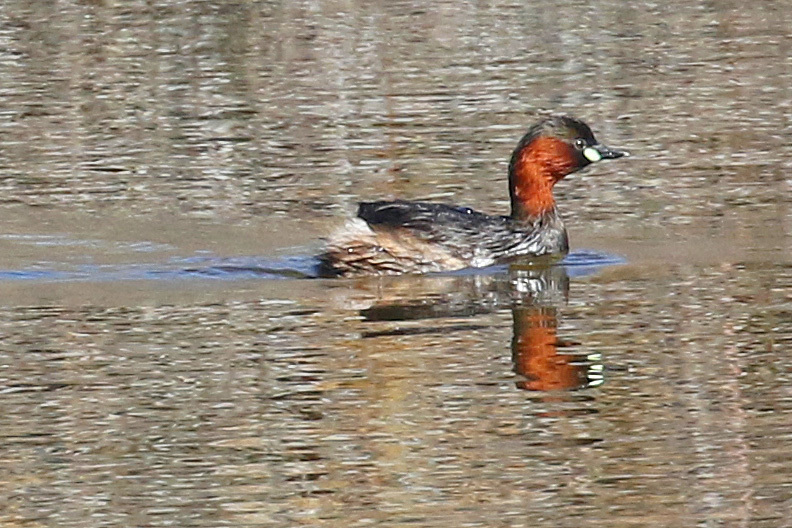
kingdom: Animalia
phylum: Chordata
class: Aves
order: Podicipediformes
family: Podicipedidae
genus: Tachybaptus
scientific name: Tachybaptus ruficollis
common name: Little grebe
